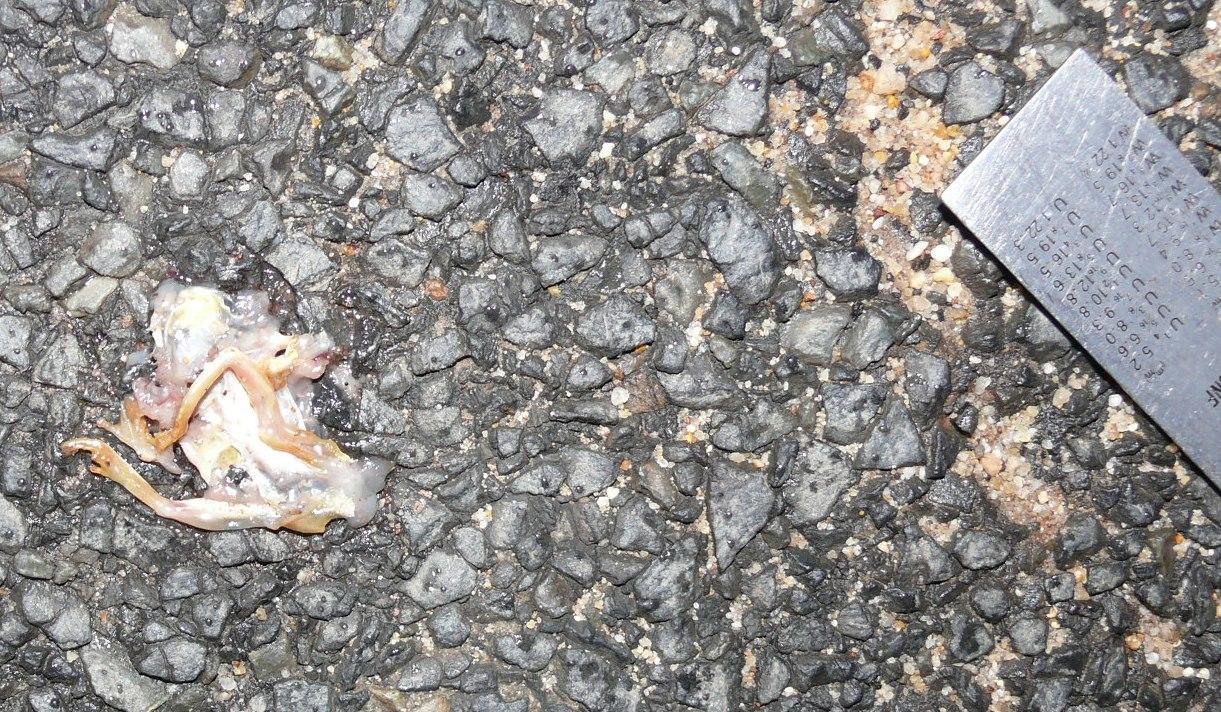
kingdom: Animalia
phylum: Chordata
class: Amphibia
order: Anura
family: Hyperoliidae
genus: Hyperolius
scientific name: Hyperolius marmoratus
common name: Painted reed frog
